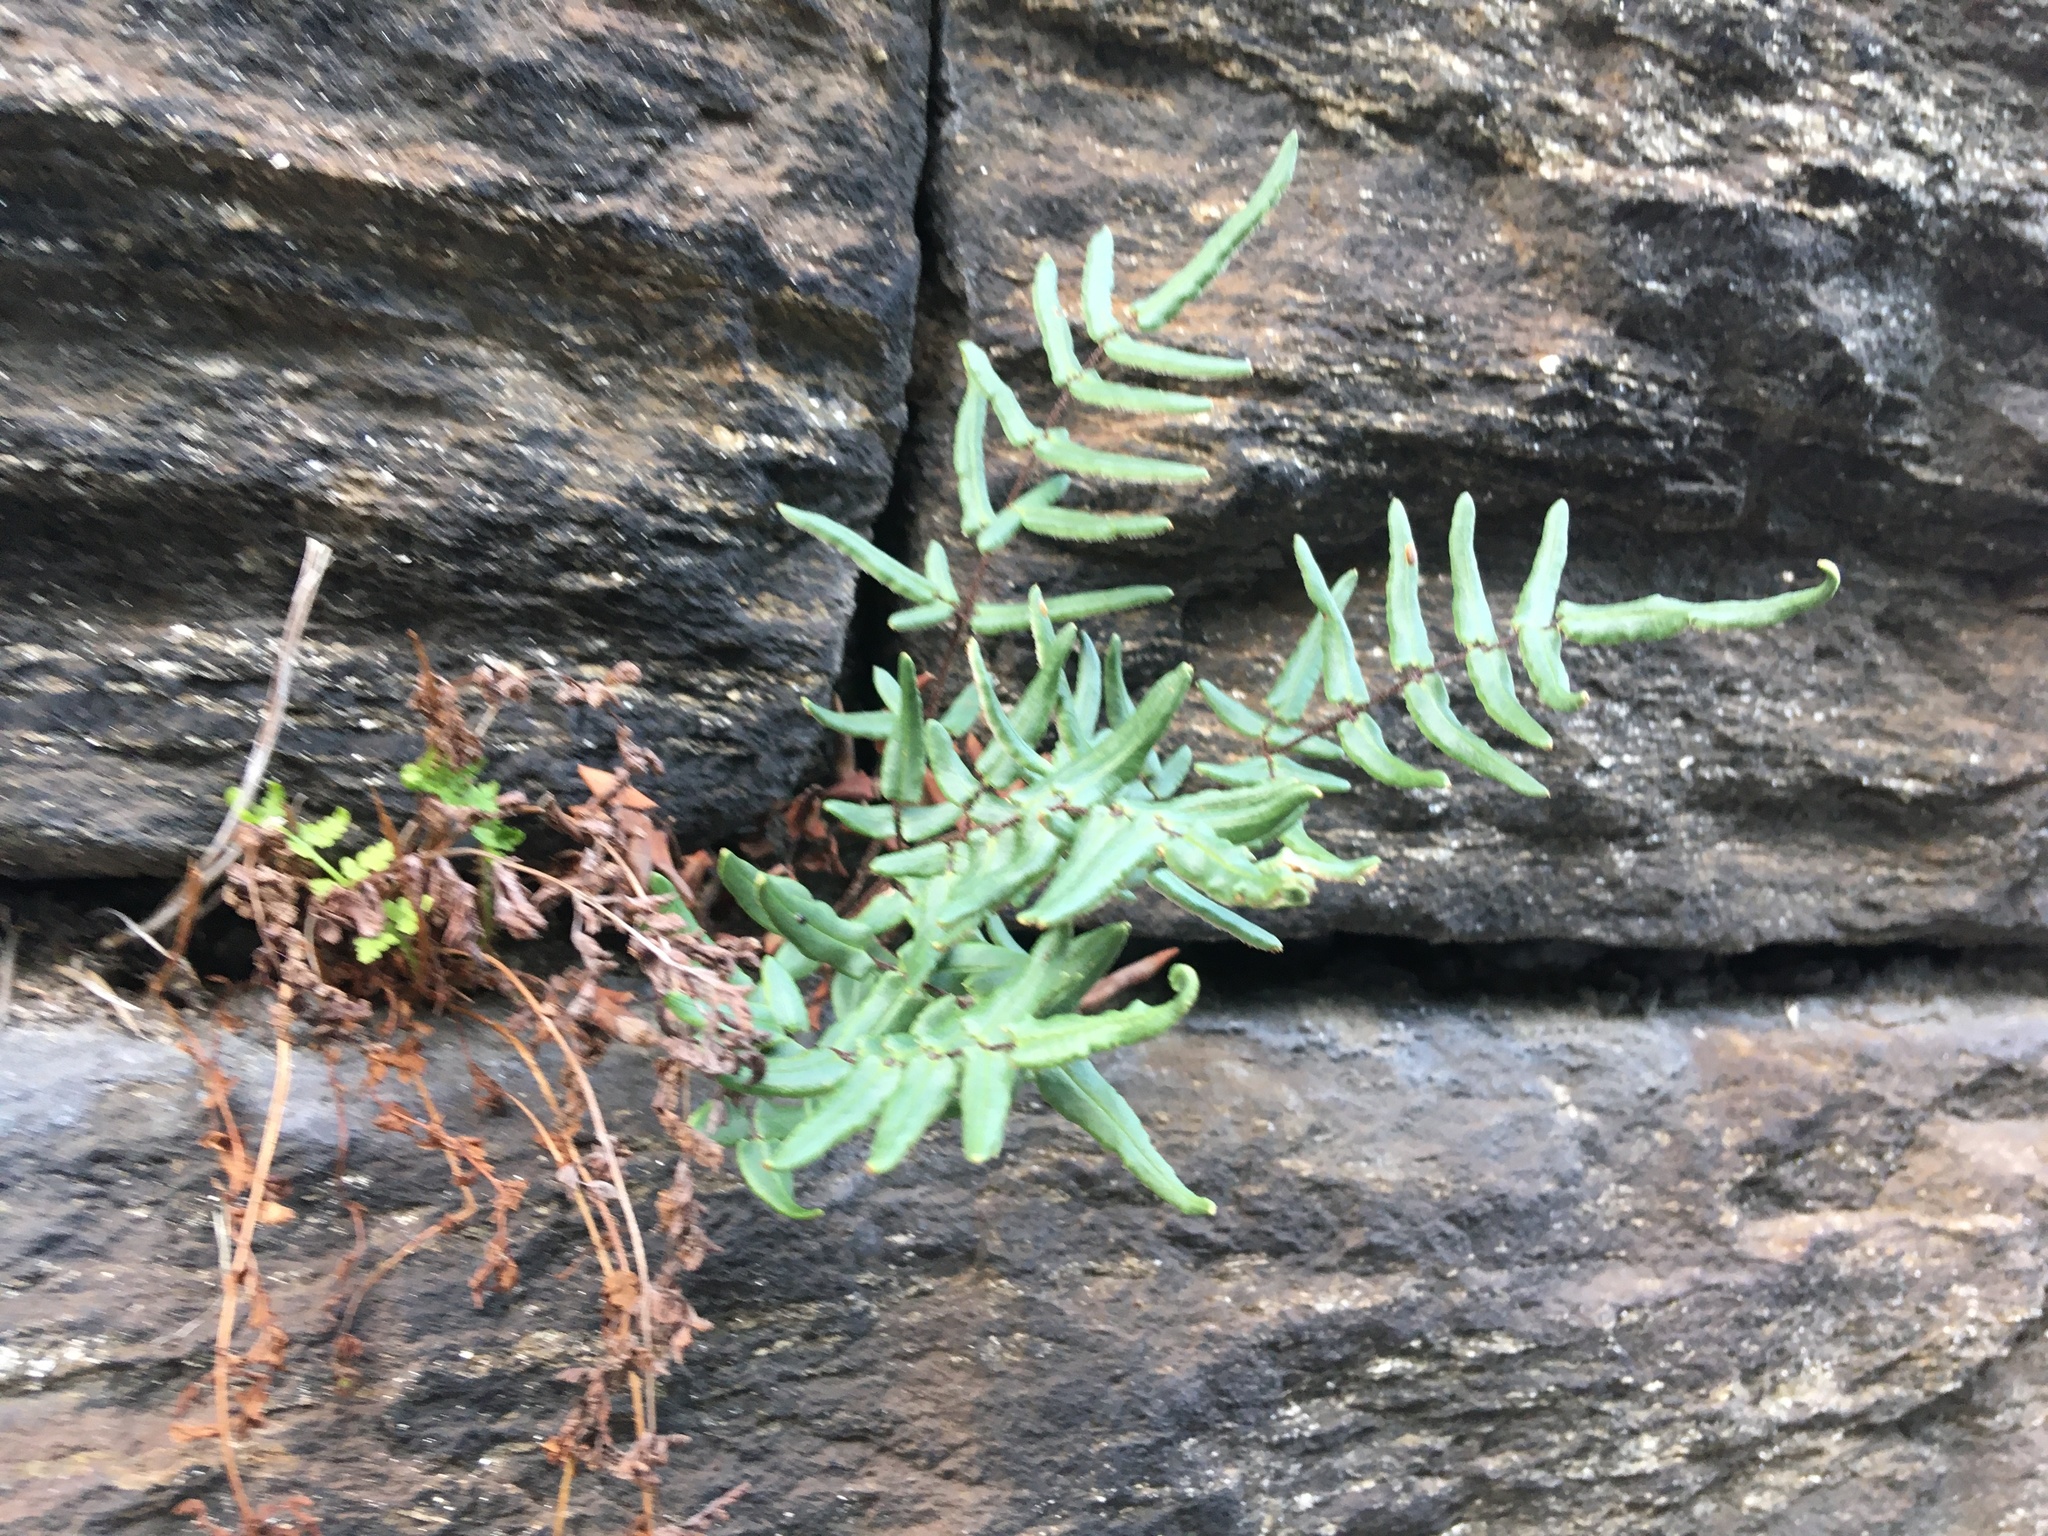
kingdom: Plantae
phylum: Tracheophyta
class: Polypodiopsida
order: Polypodiales
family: Pteridaceae
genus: Pellaea
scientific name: Pellaea atropurpurea
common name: Hairy cliffbrake
